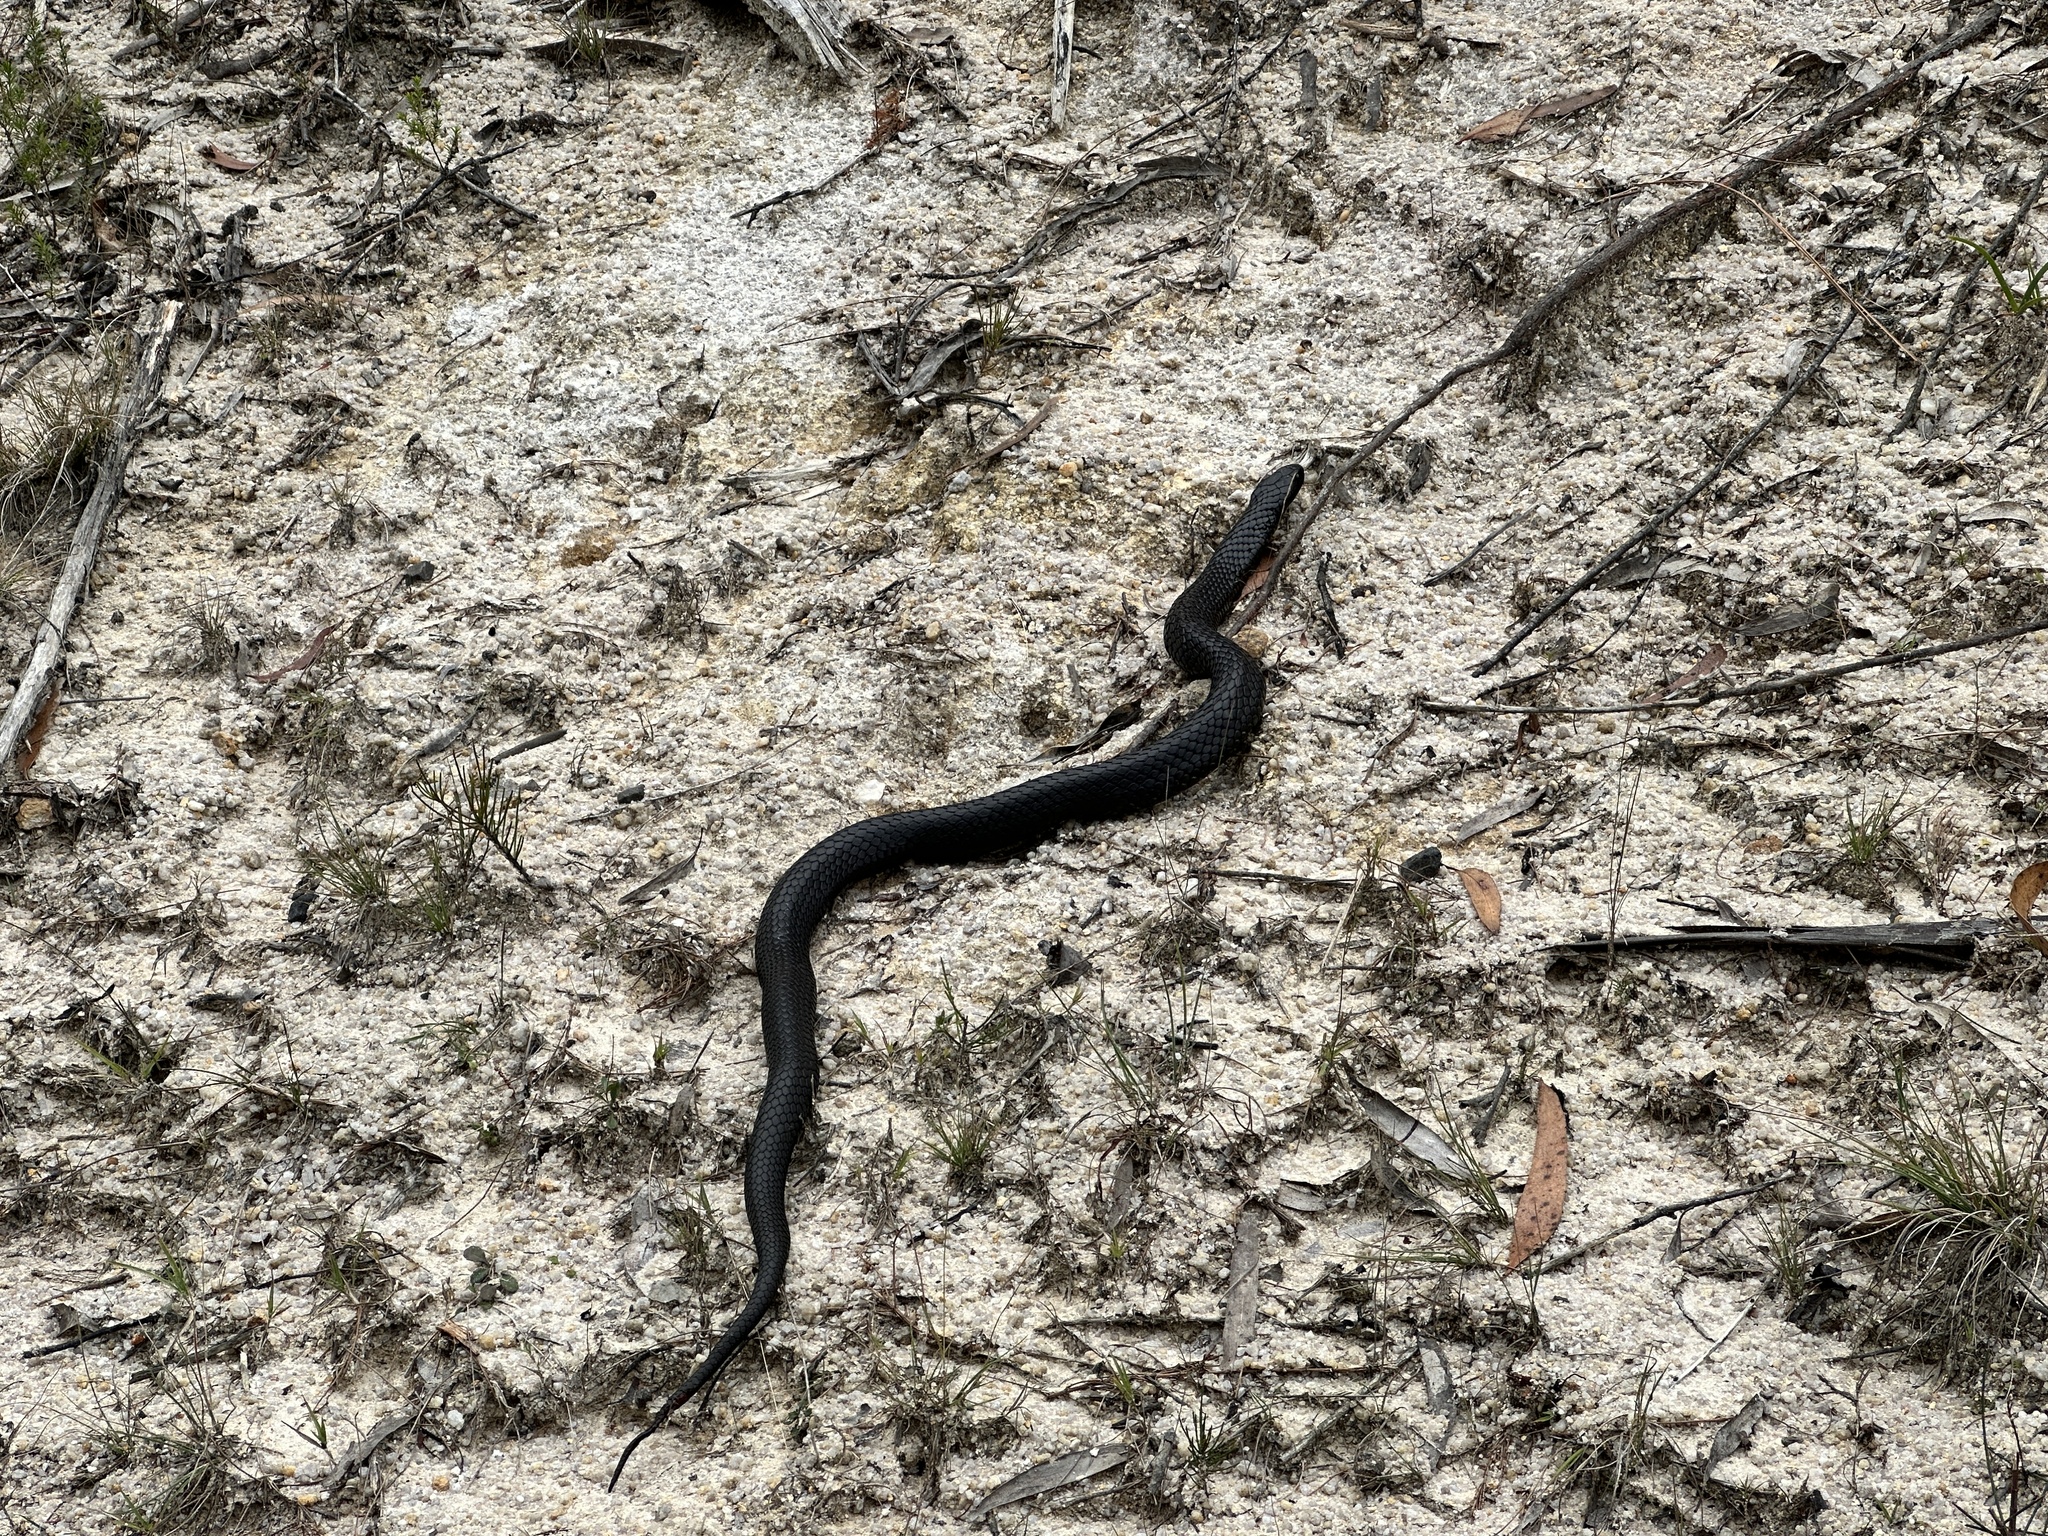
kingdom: Animalia
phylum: Chordata
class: Squamata
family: Elapidae
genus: Notechis
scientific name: Notechis scutatus
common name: Mainland tiger snake
